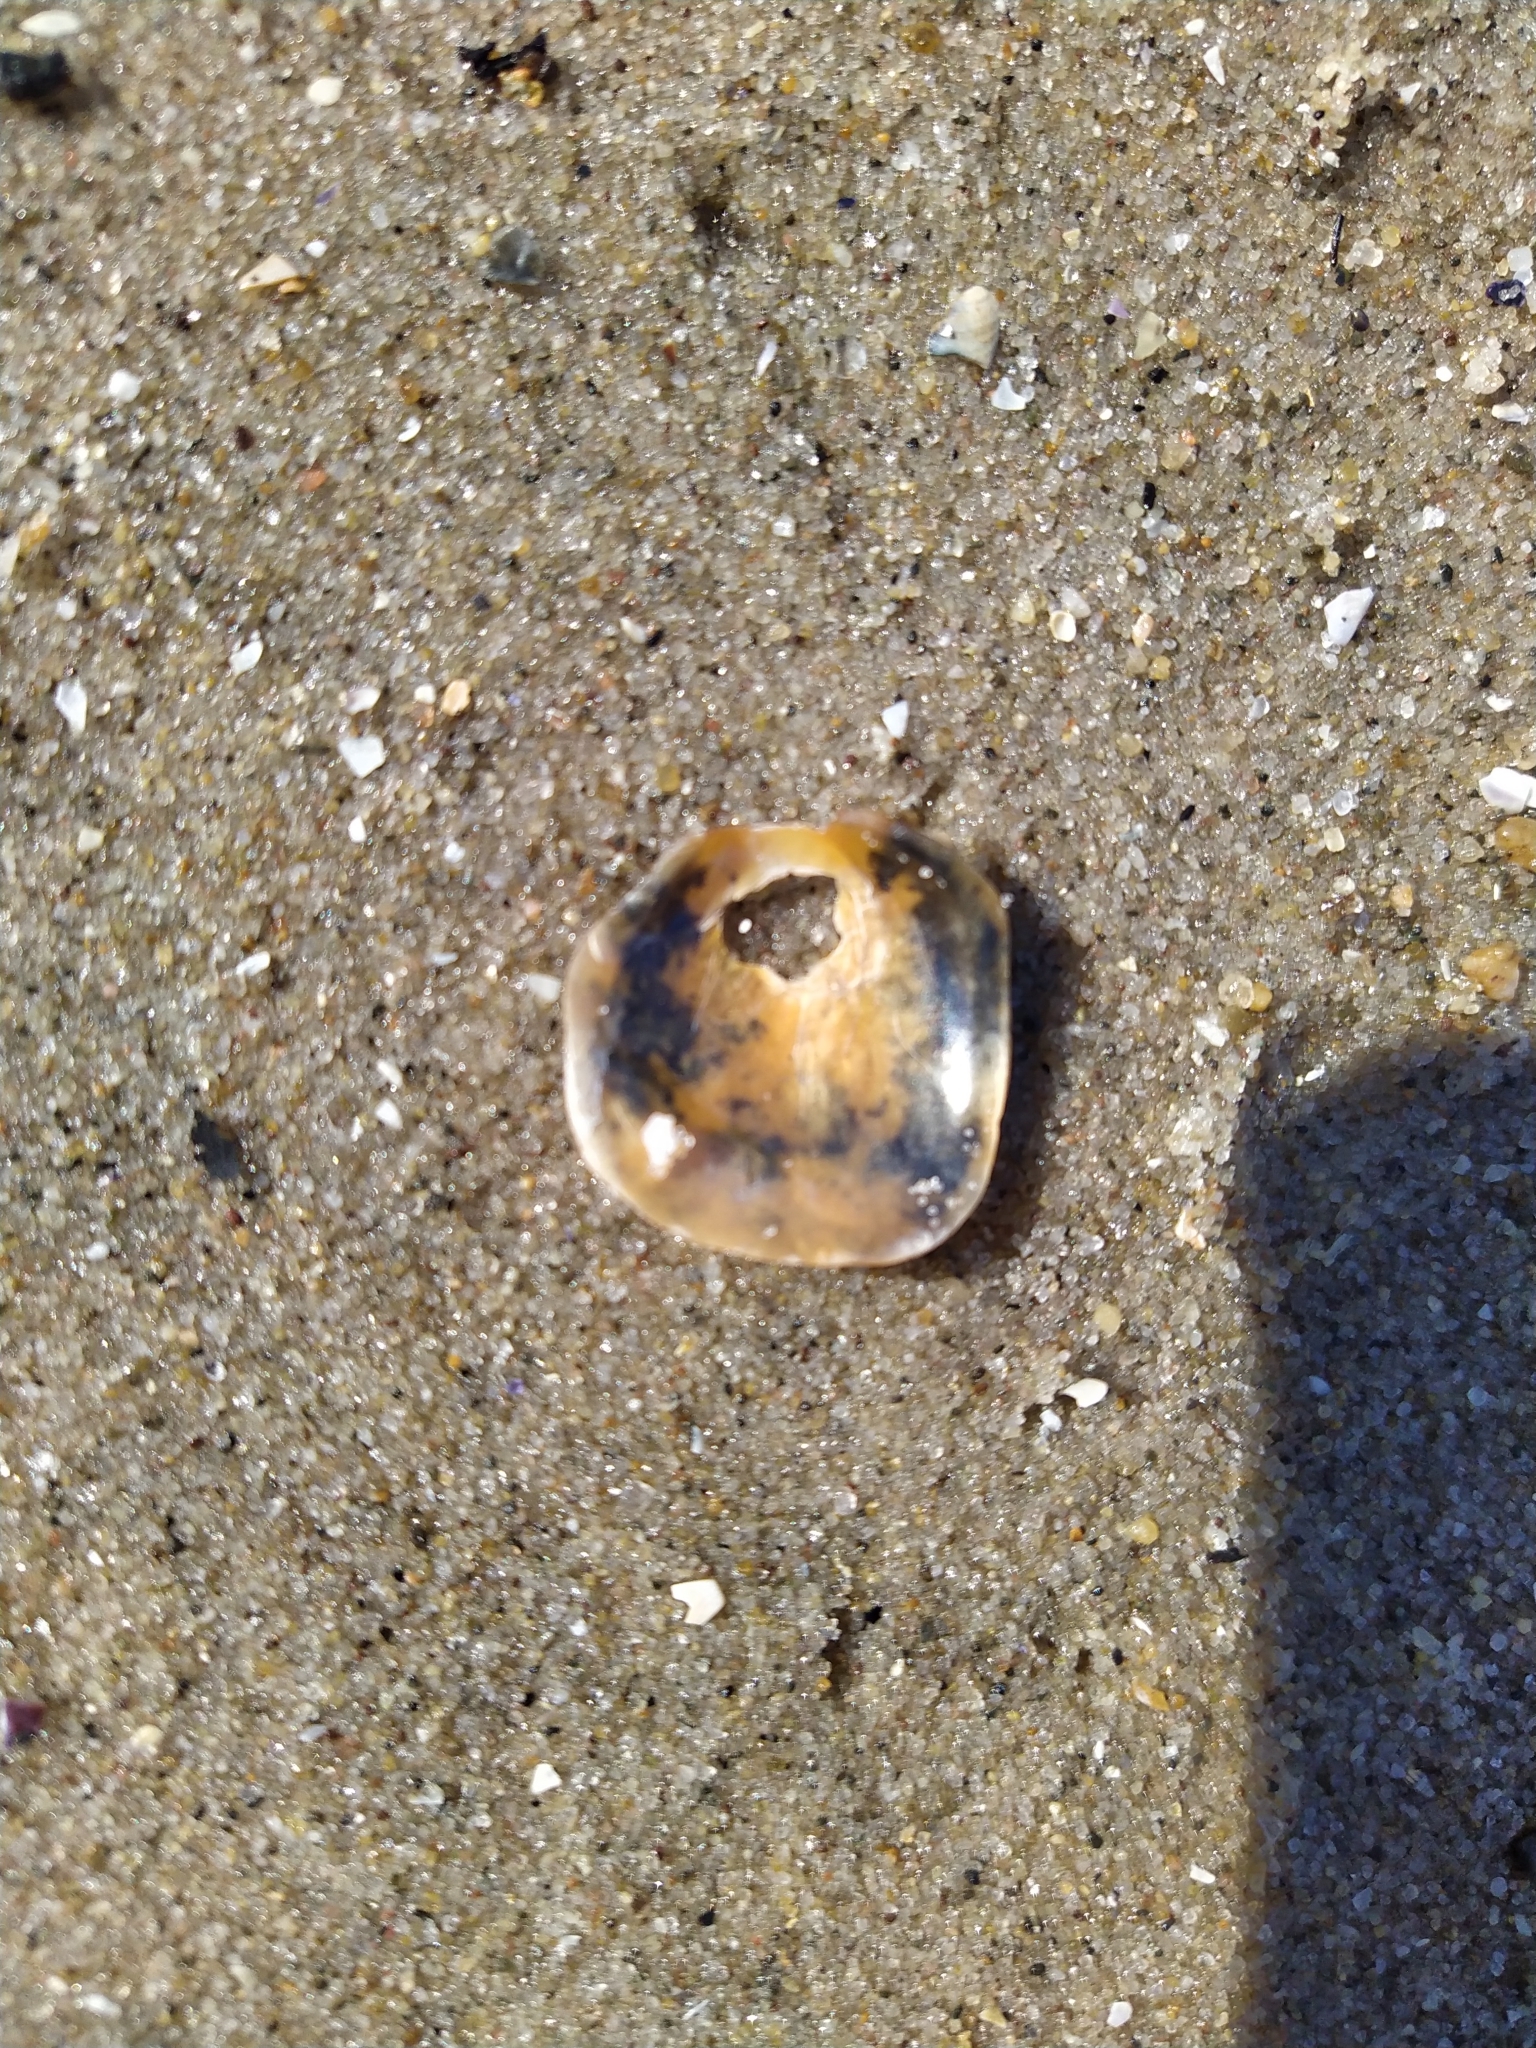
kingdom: Animalia
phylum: Mollusca
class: Bivalvia
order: Pectinida
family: Anomiidae
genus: Anomia
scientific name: Anomia simplex
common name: Common jingle shell
